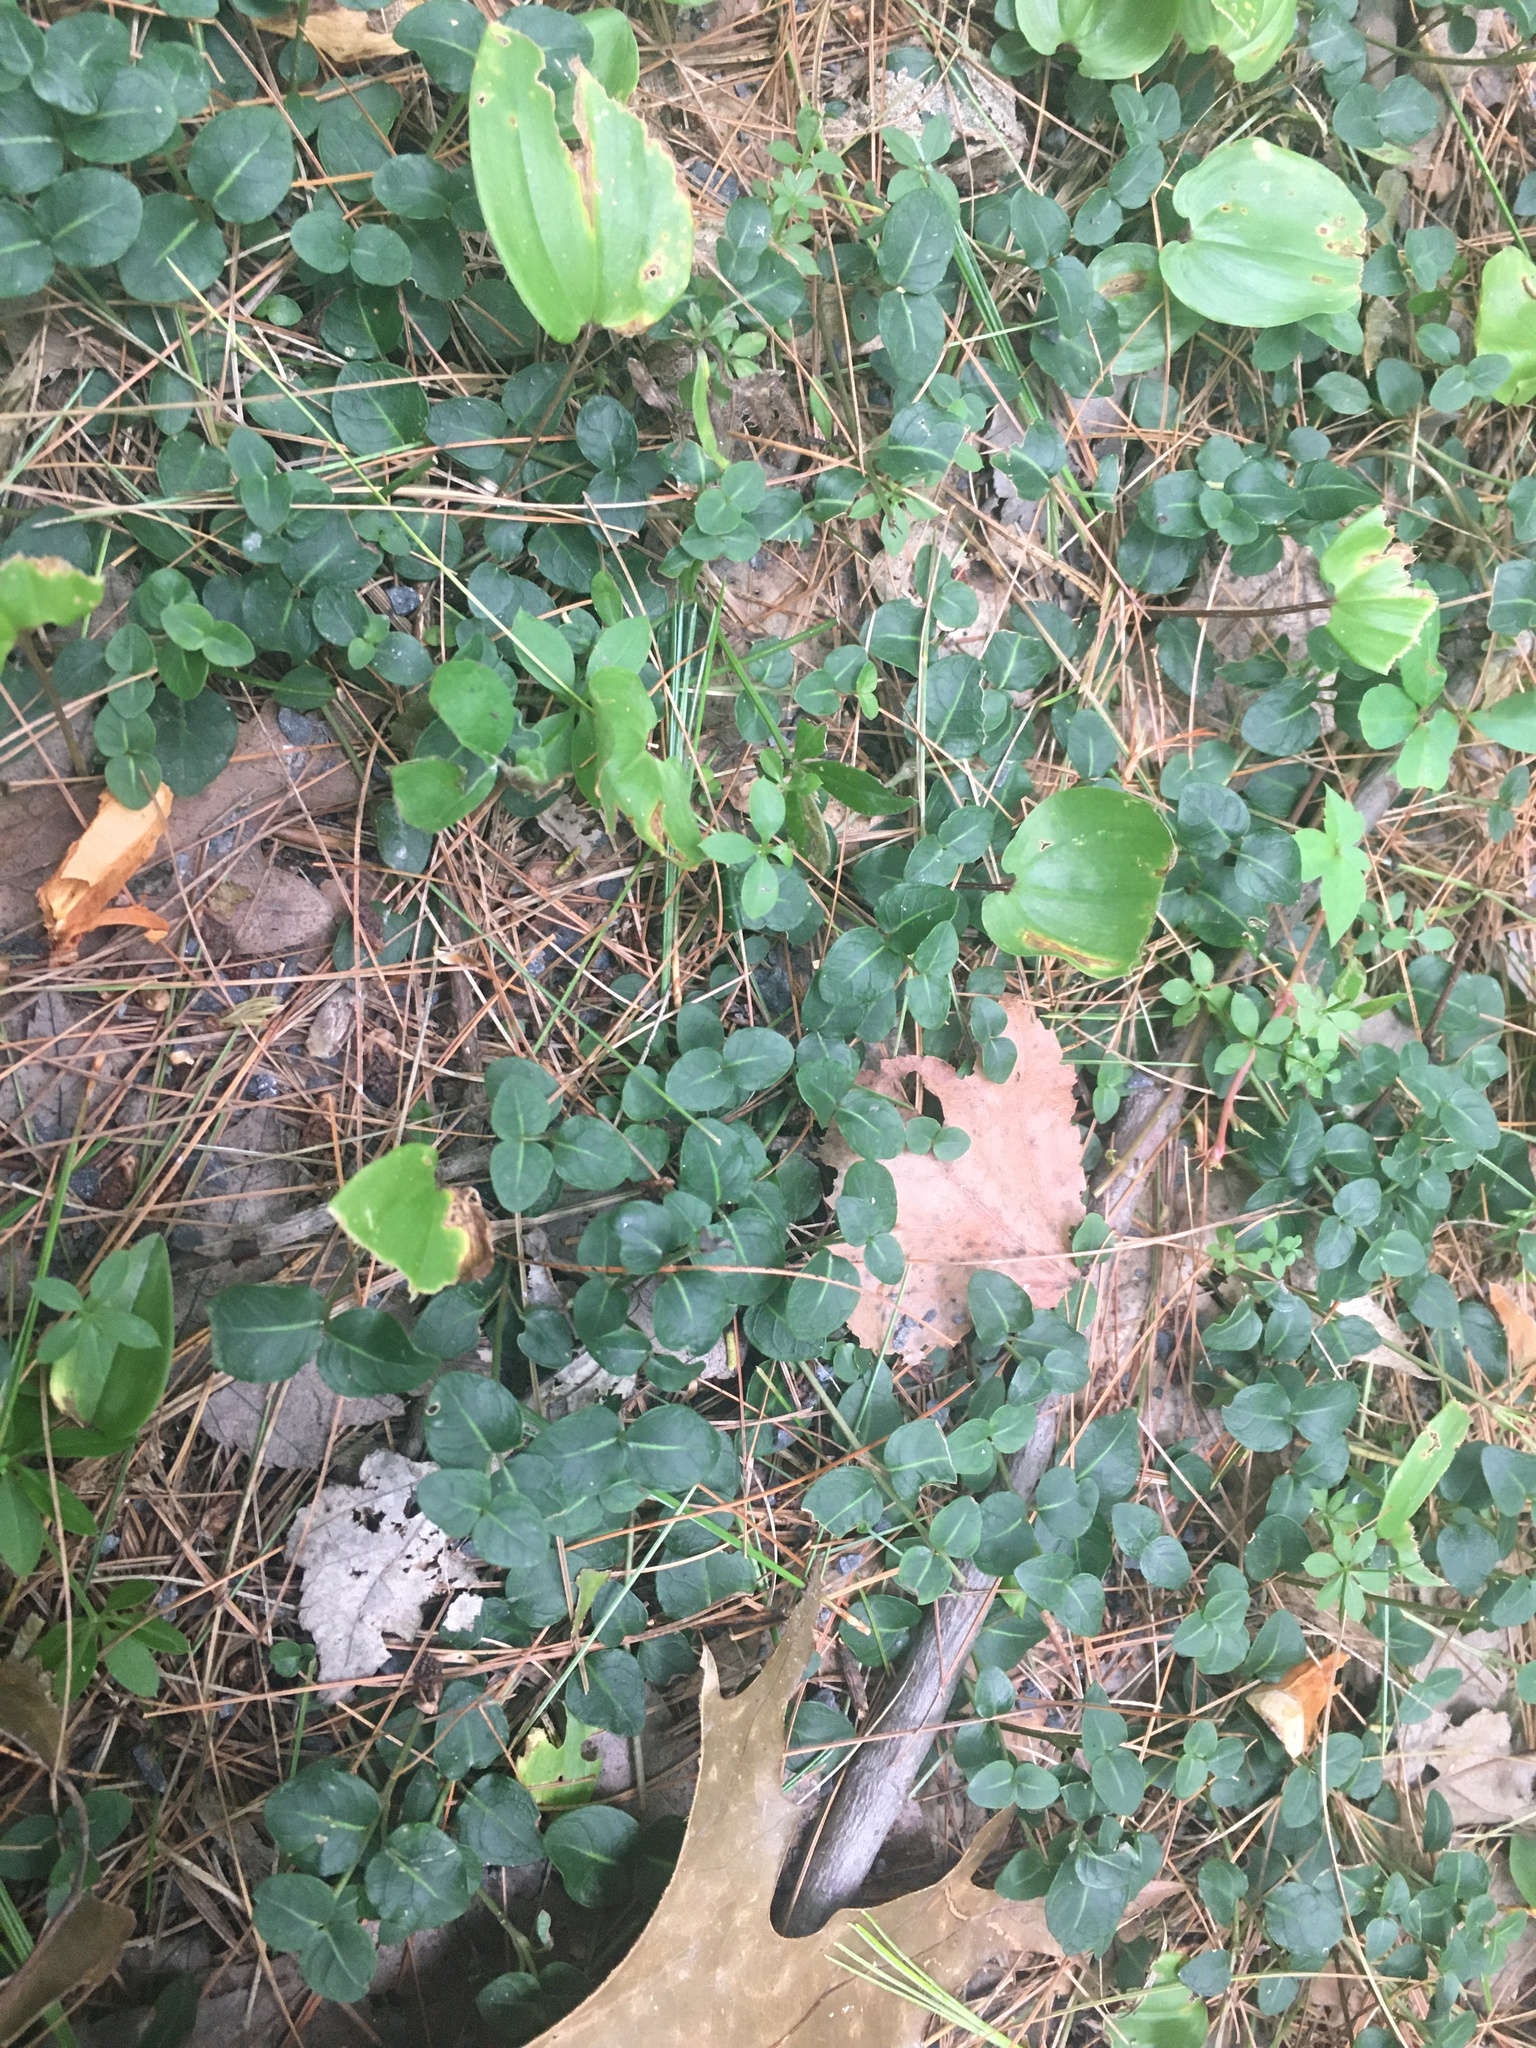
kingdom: Plantae
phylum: Tracheophyta
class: Magnoliopsida
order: Gentianales
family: Rubiaceae
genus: Mitchella
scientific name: Mitchella repens
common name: Partridge-berry
